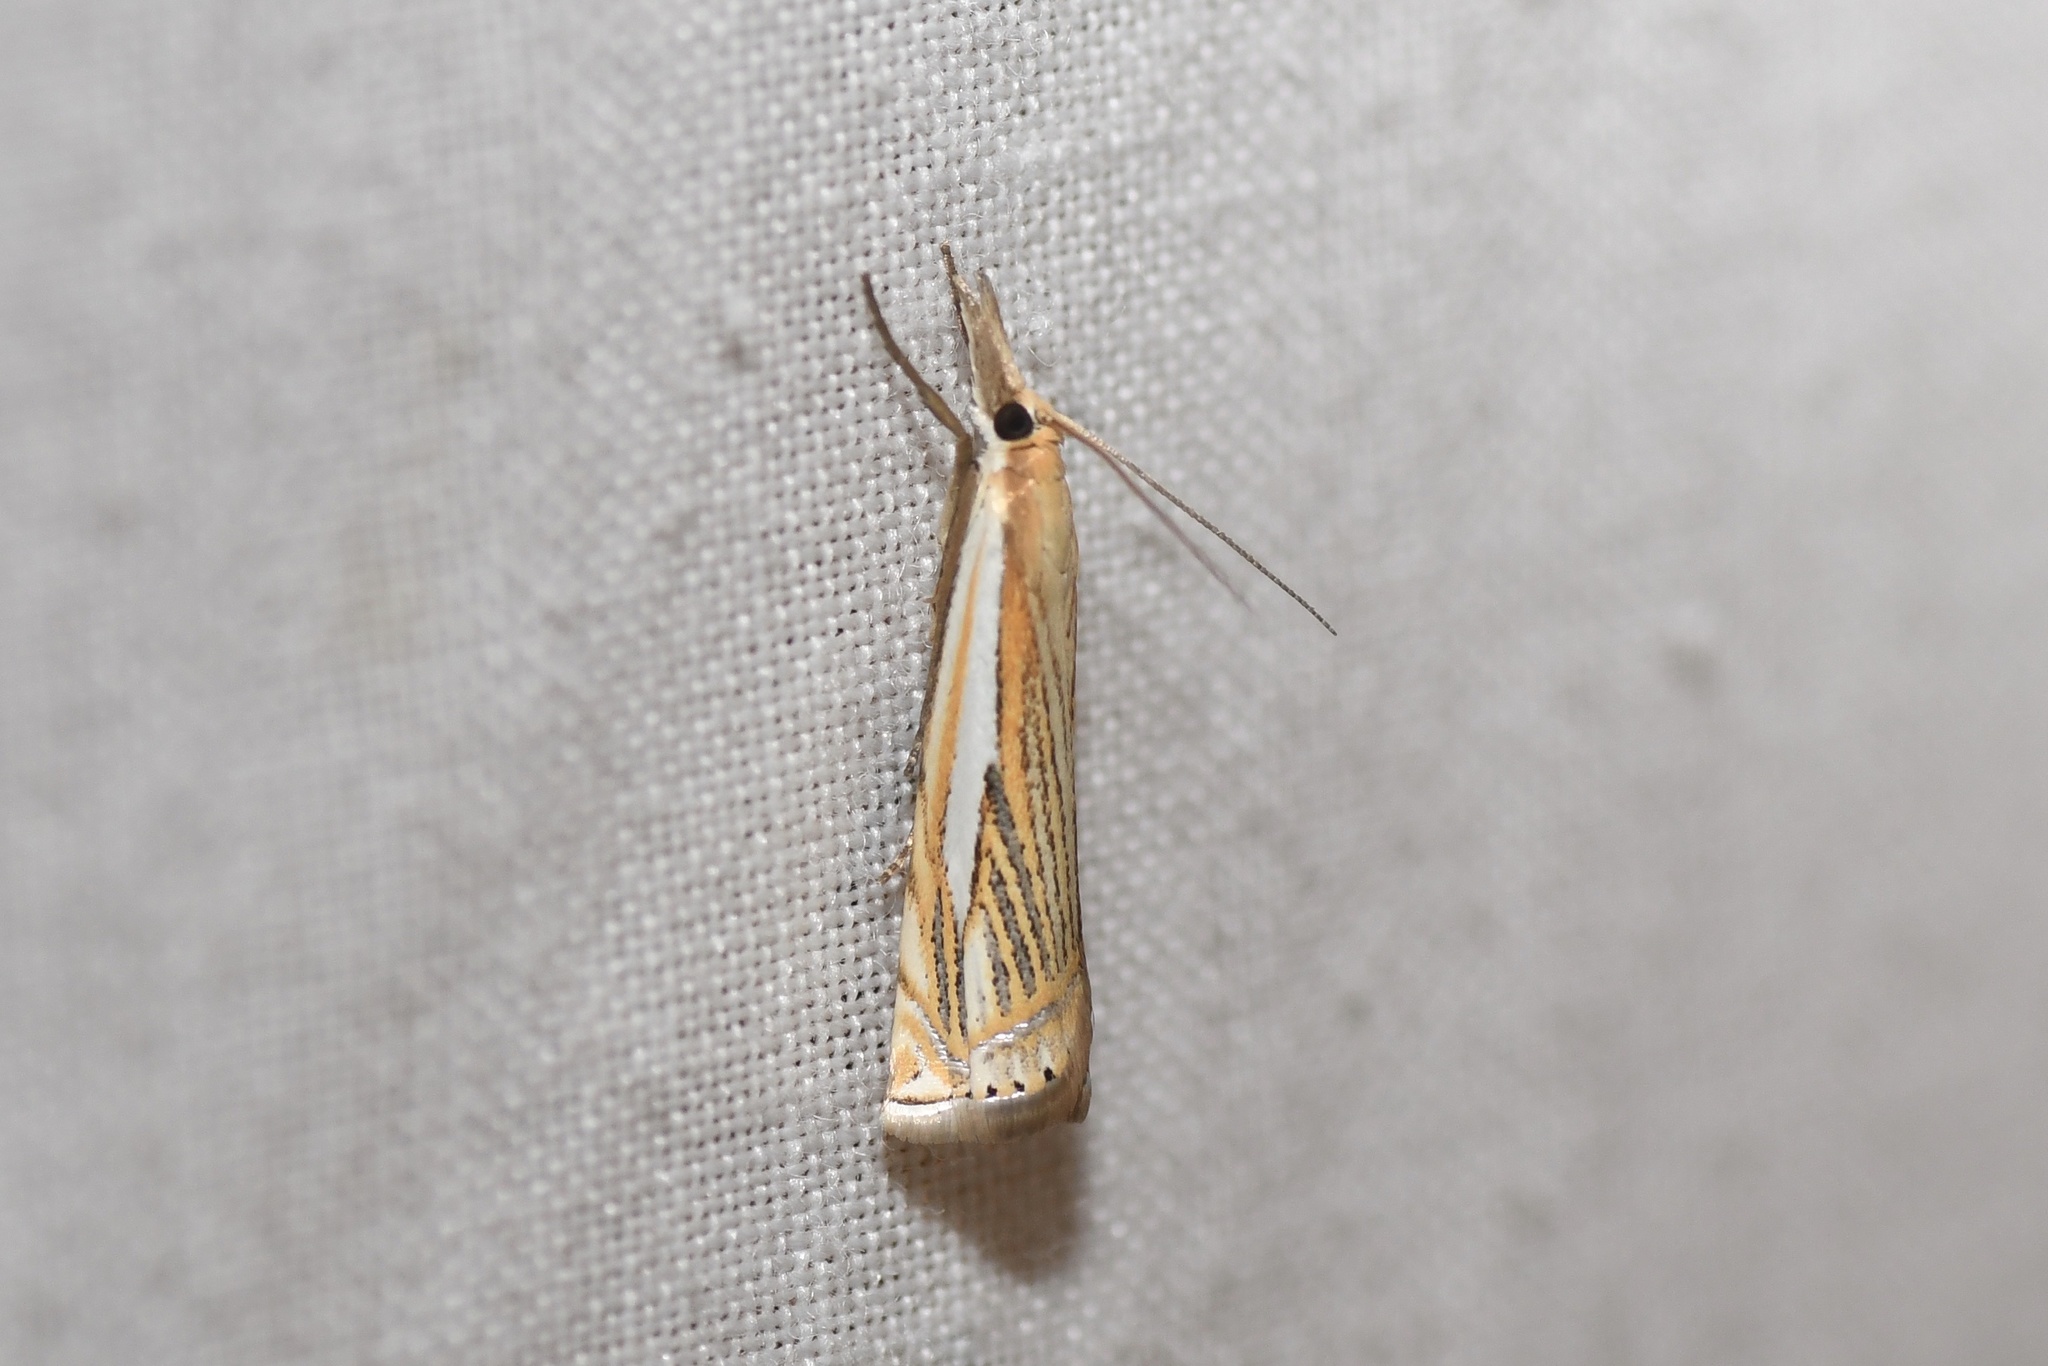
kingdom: Animalia
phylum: Arthropoda
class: Insecta
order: Lepidoptera
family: Crambidae
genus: Crambus
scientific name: Crambus saltuellus
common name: Pasture grass-veneer
